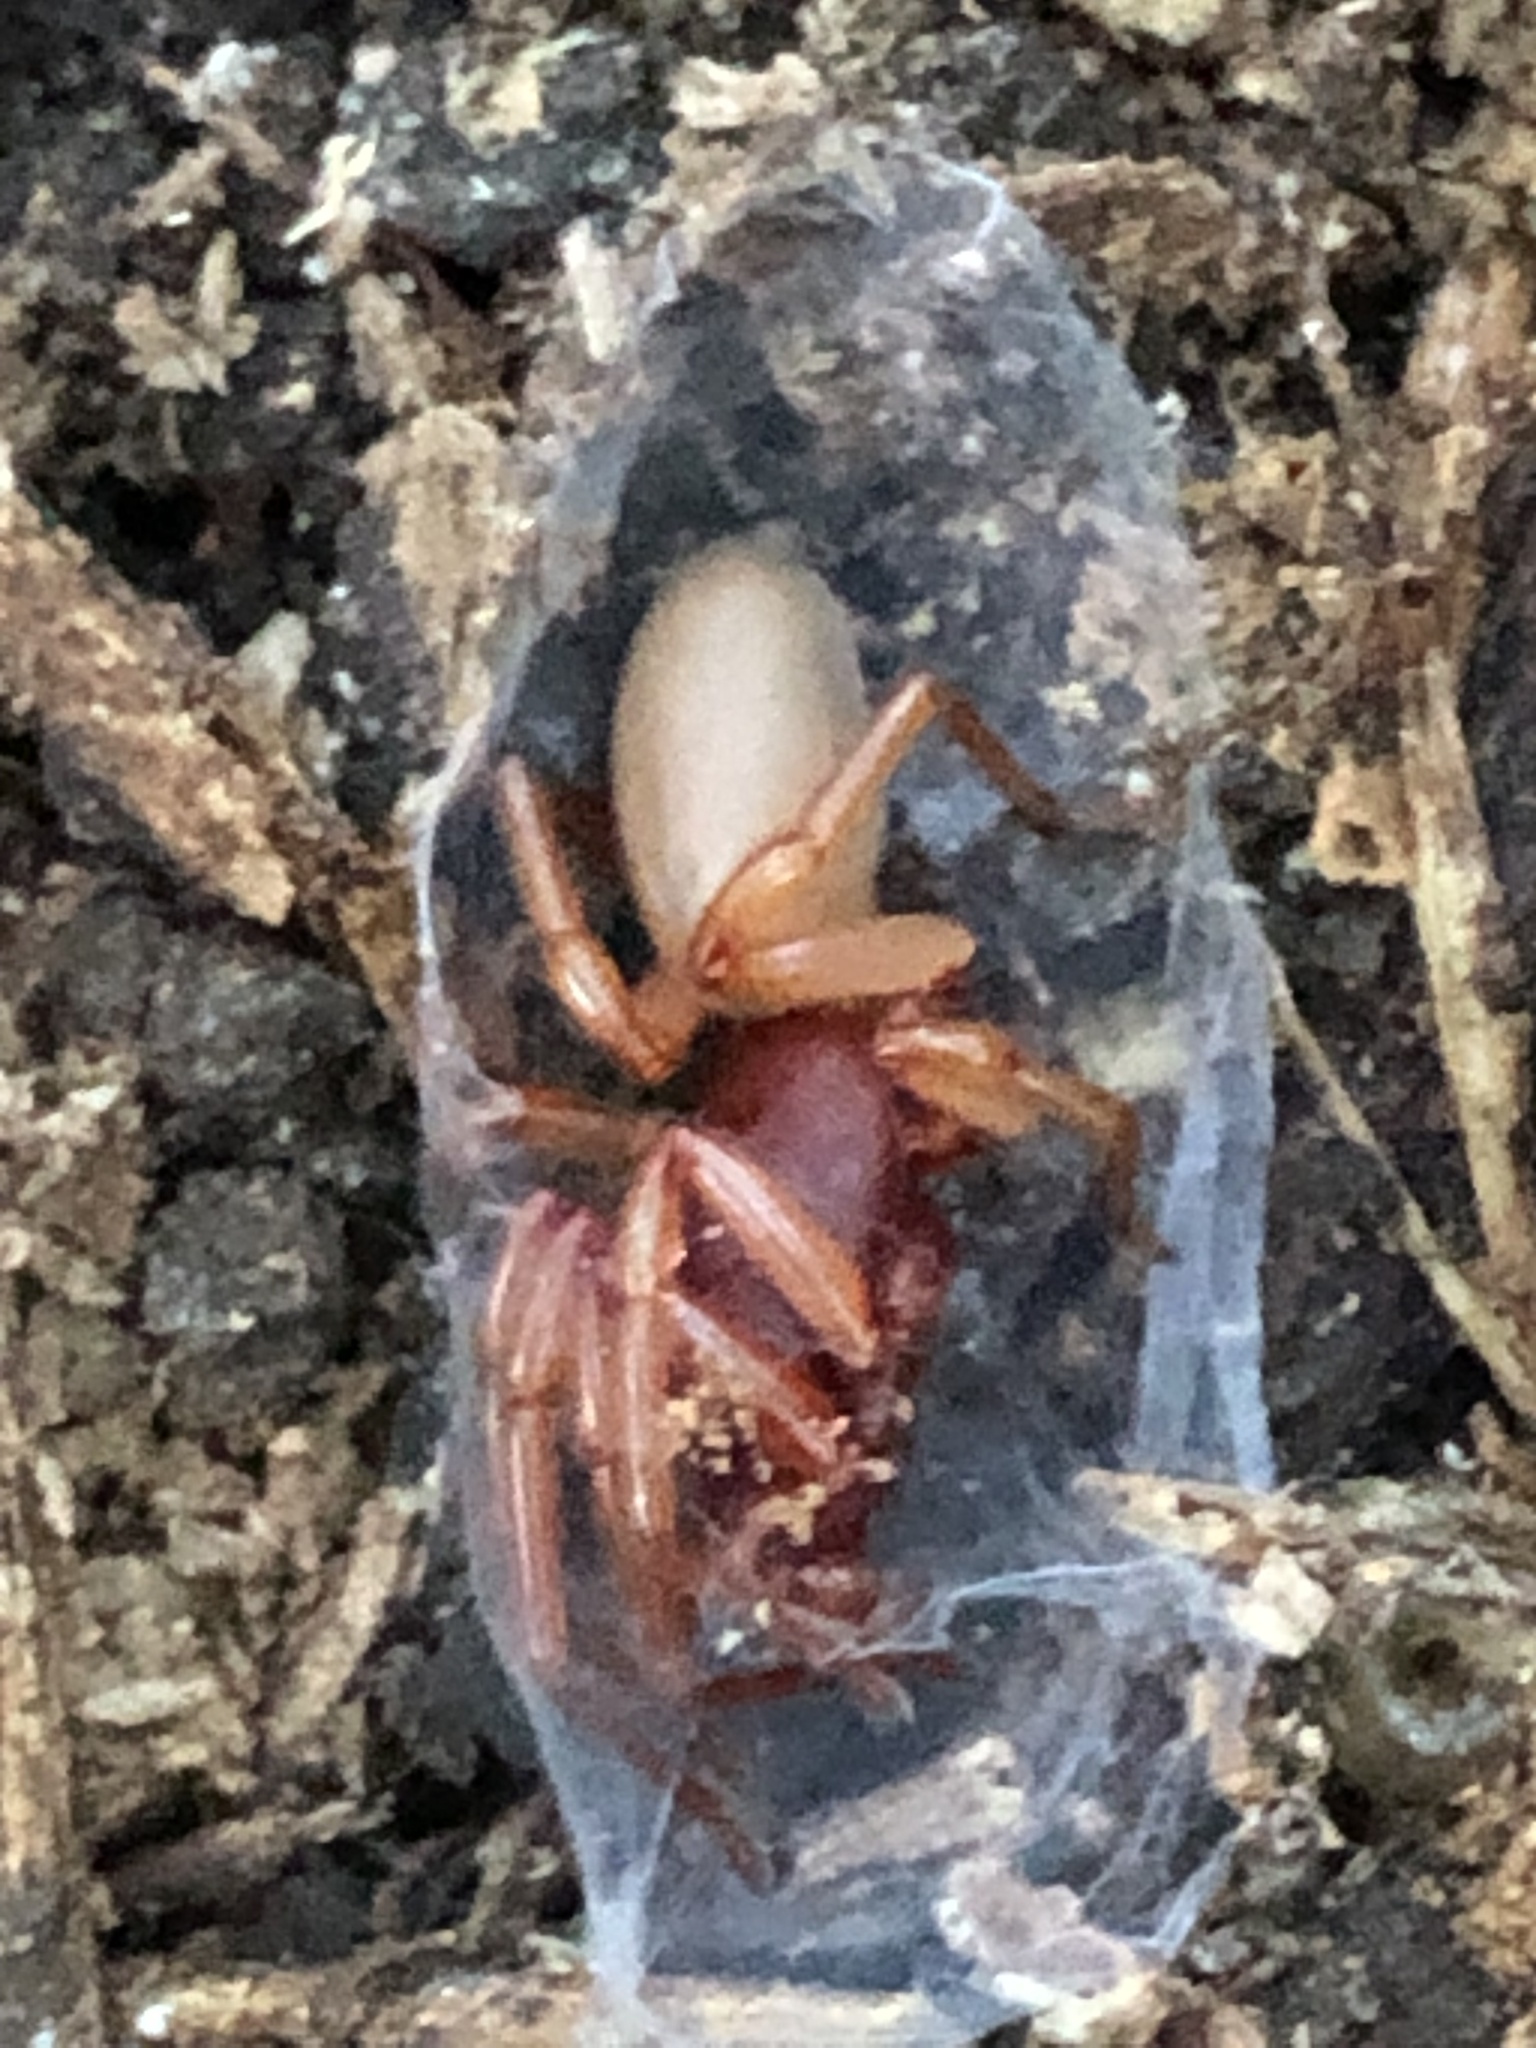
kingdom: Animalia
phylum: Arthropoda
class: Arachnida
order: Araneae
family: Dysderidae
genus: Dysdera
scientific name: Dysdera crocata
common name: Woodlouse spider
